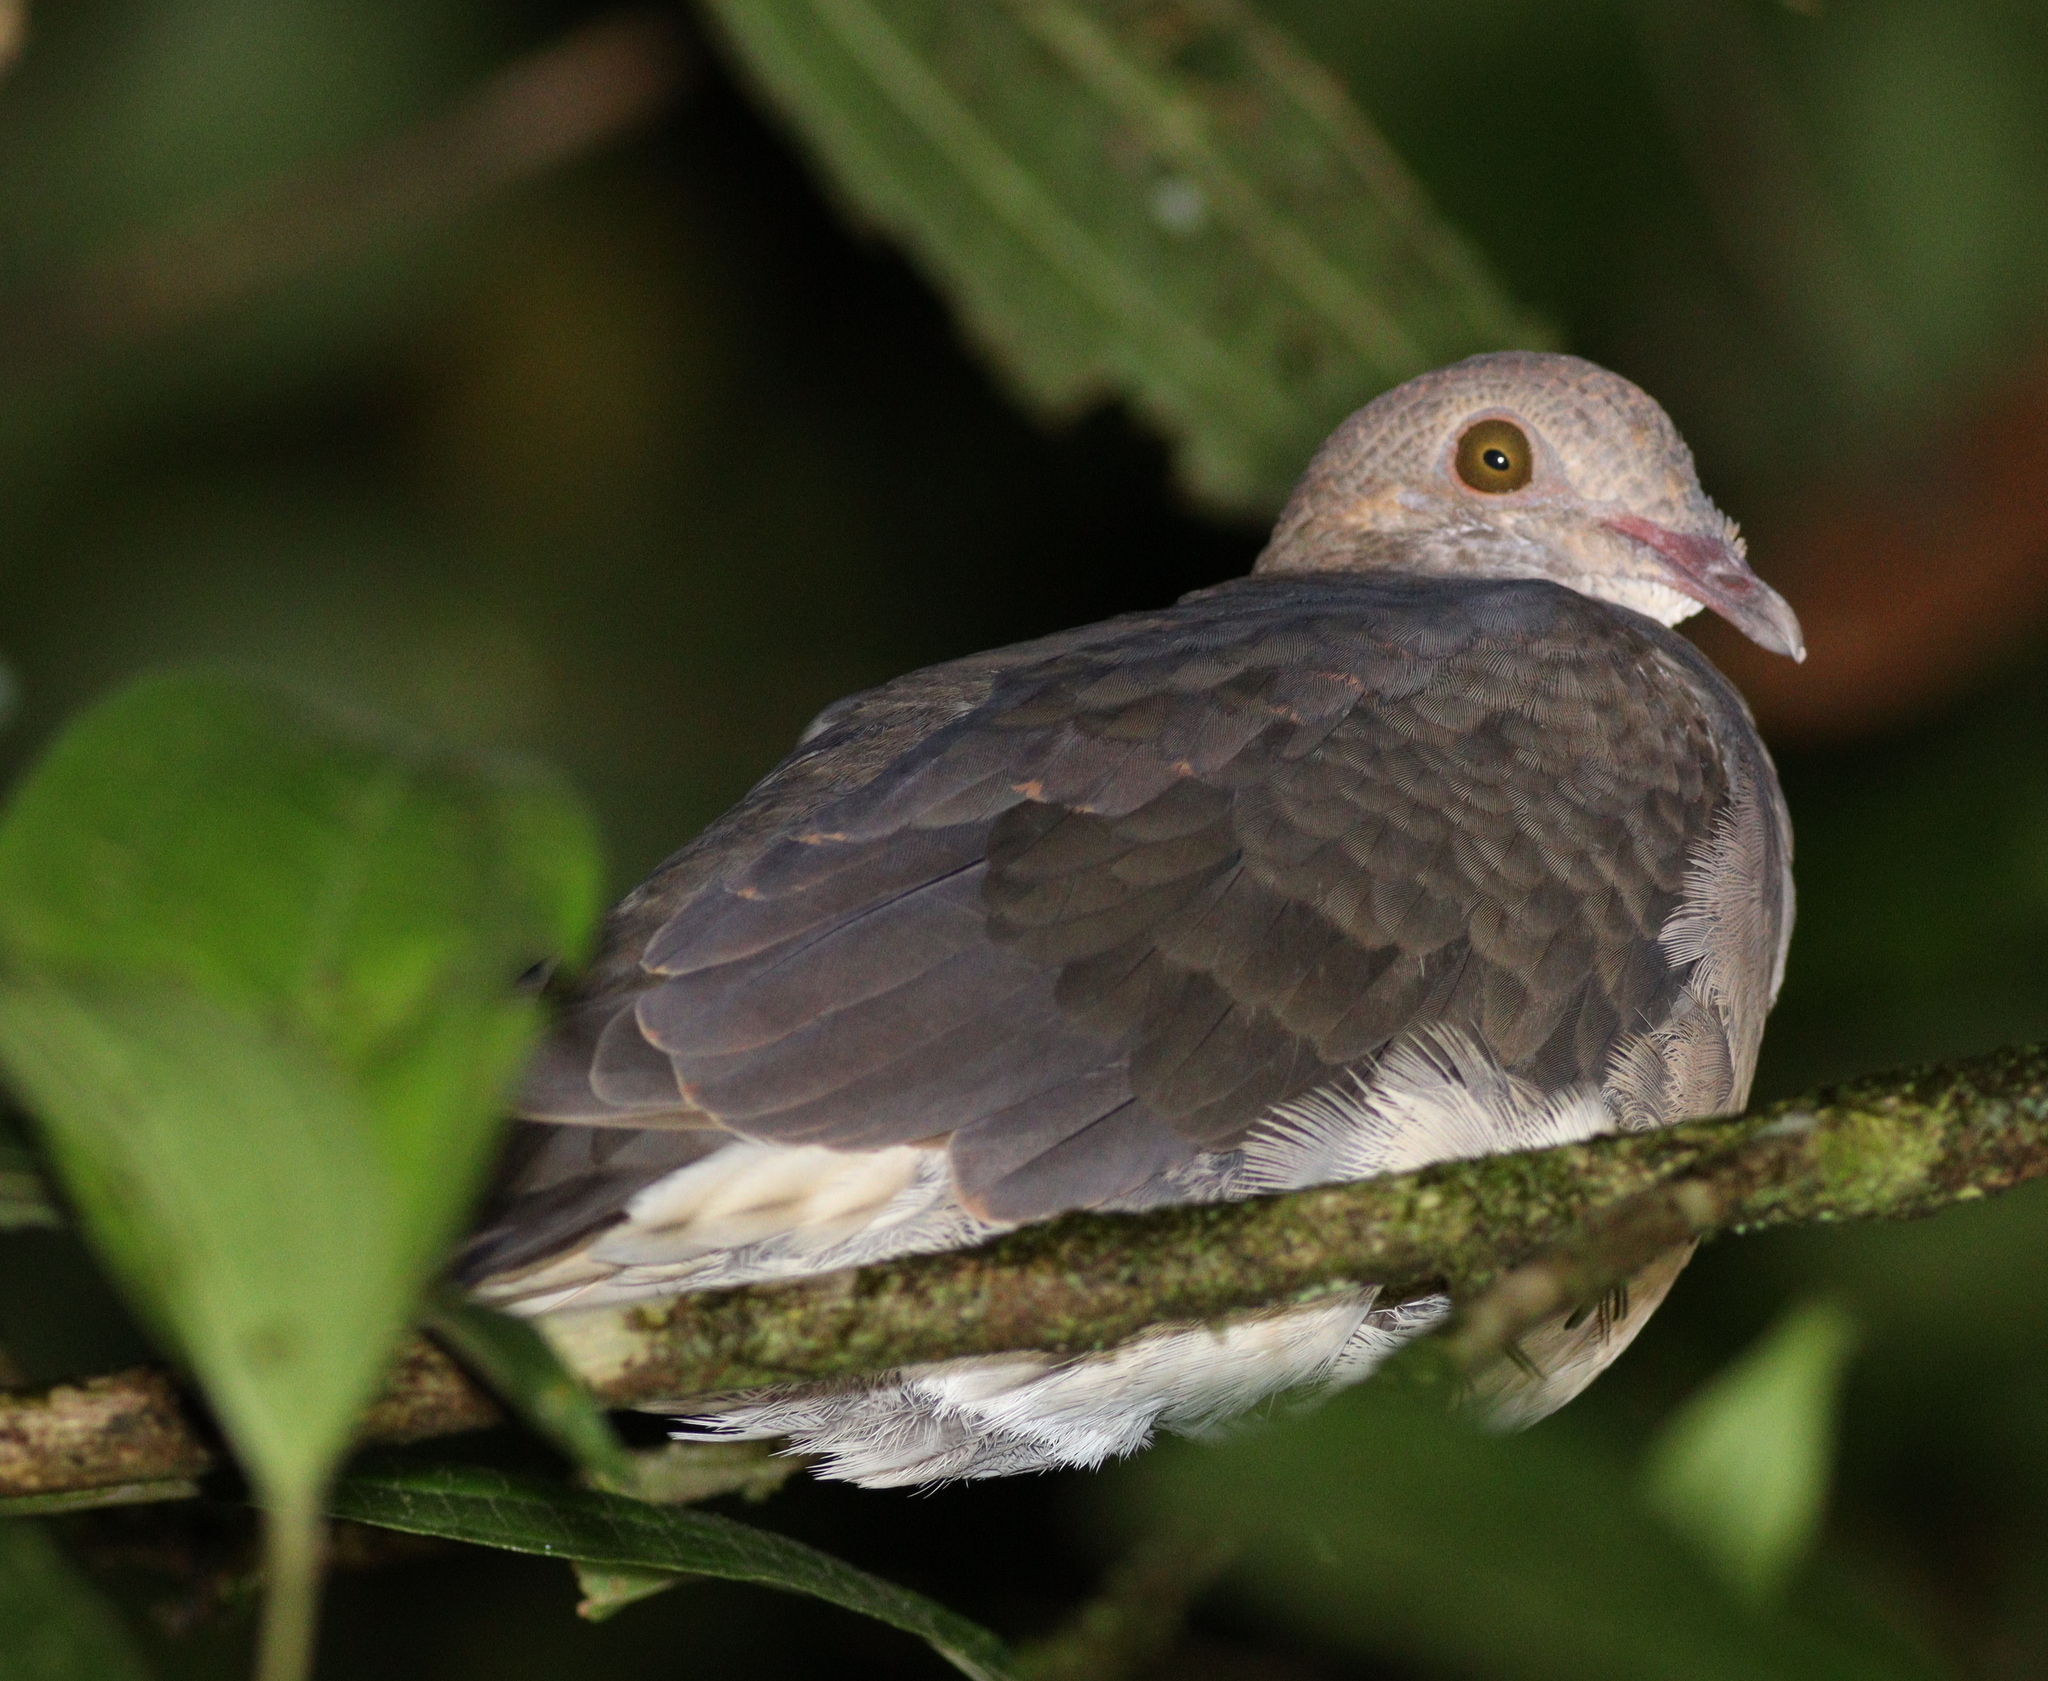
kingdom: Animalia
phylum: Chordata
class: Aves
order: Columbiformes
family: Columbidae
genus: Geotrygon
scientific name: Geotrygon montana
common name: Ruddy quail-dove
